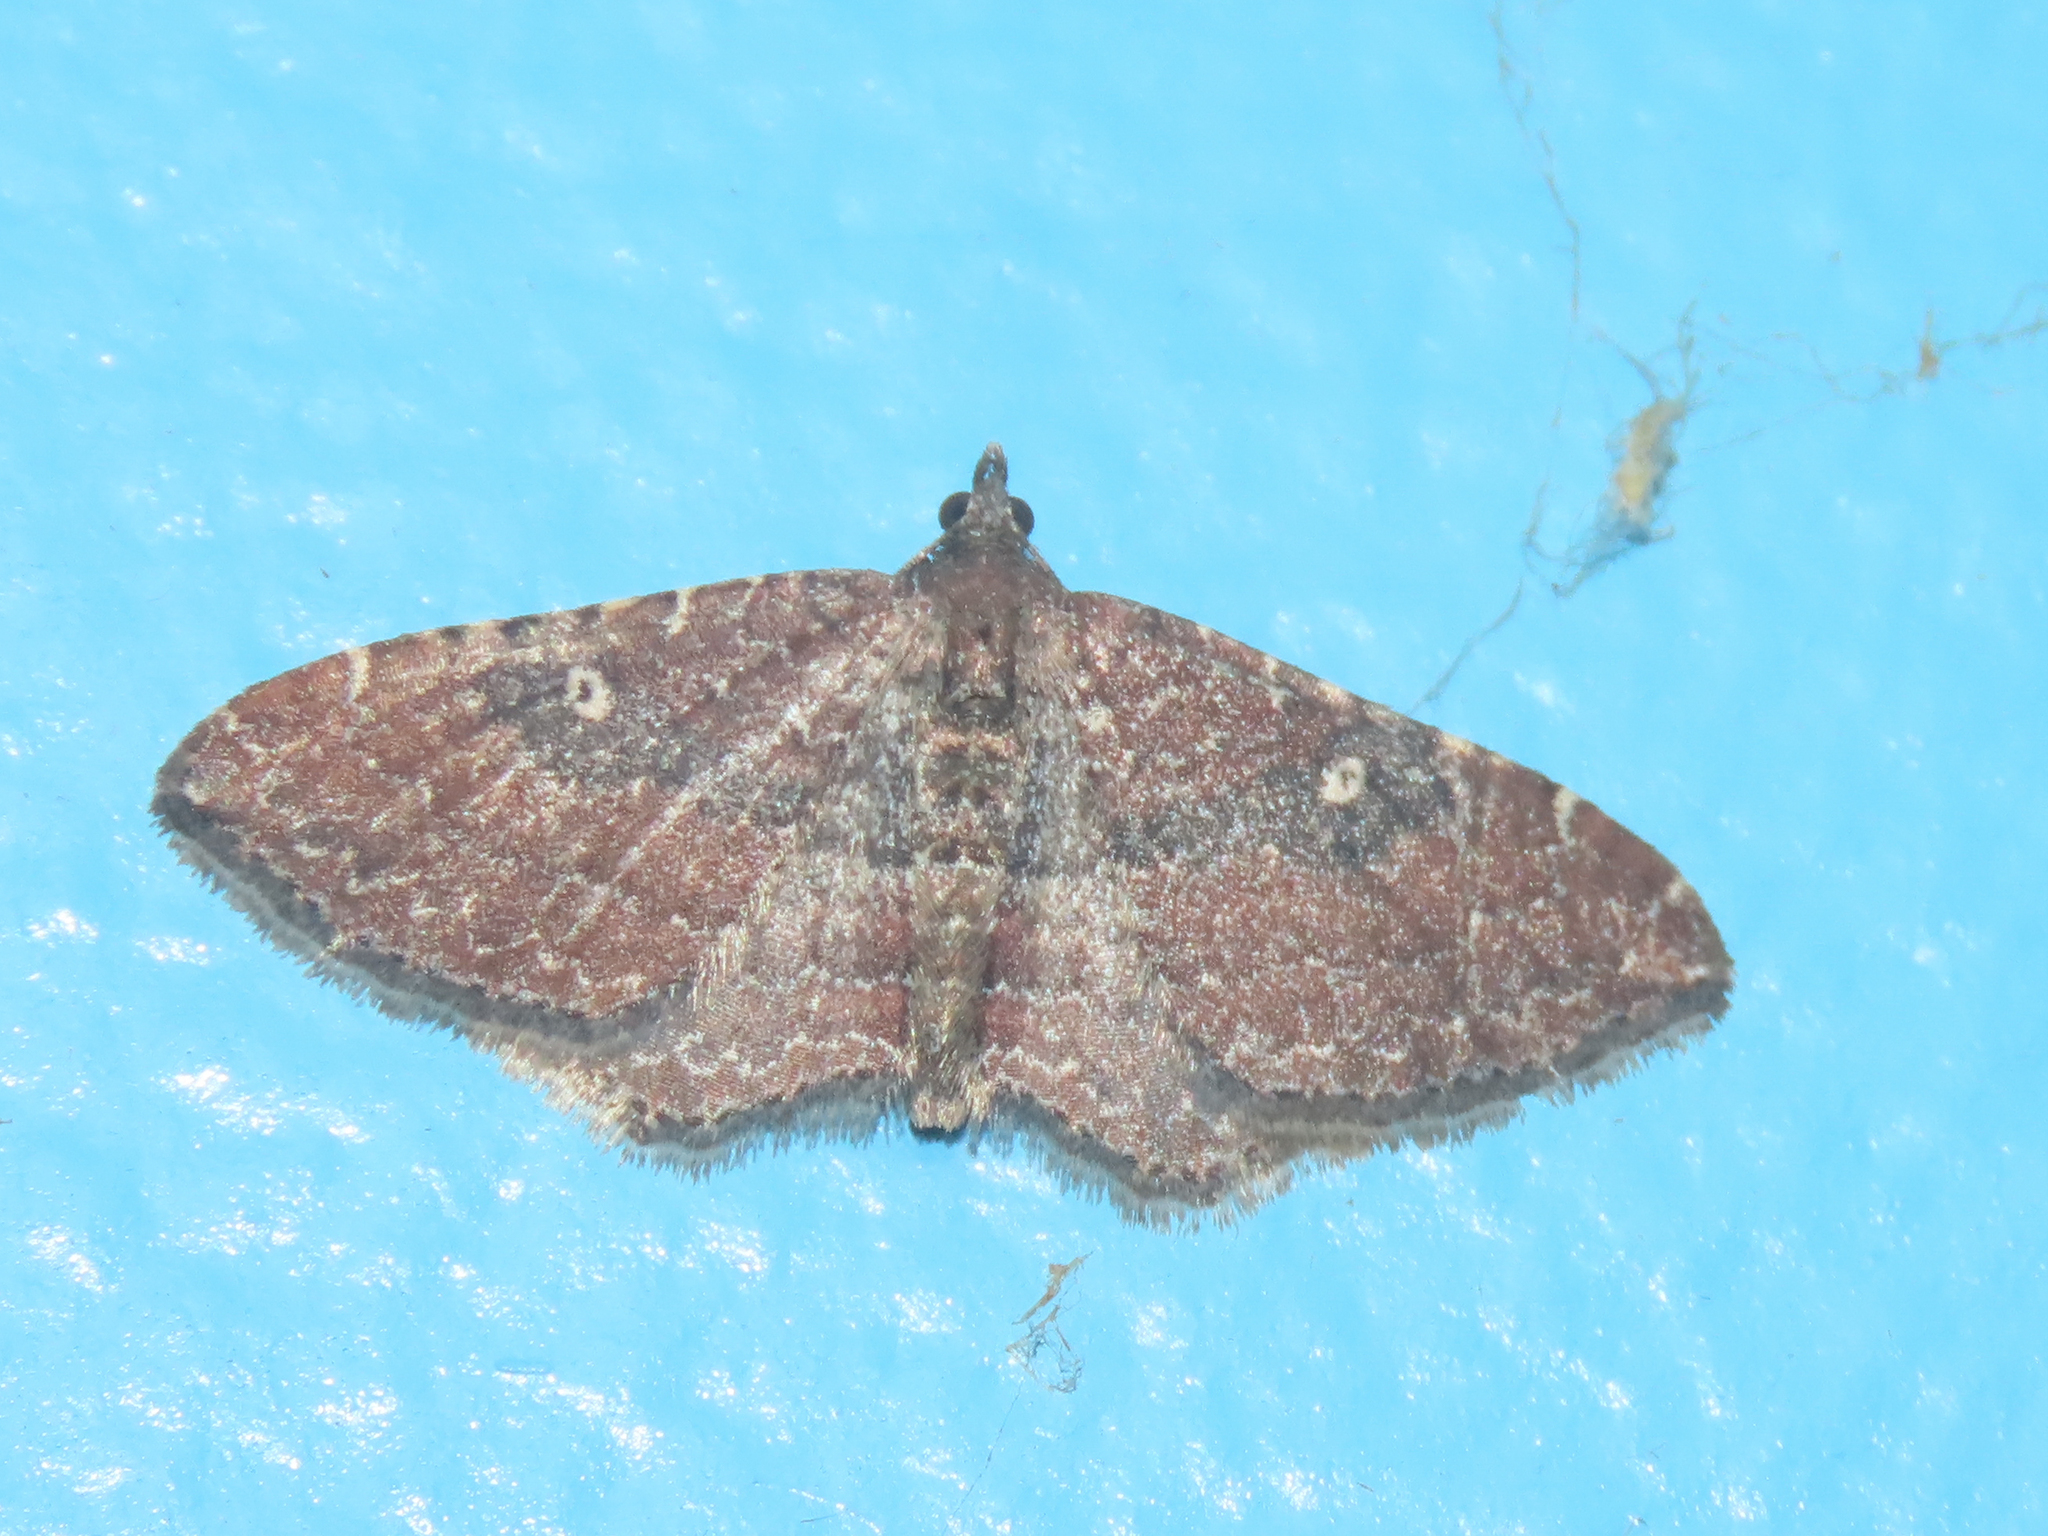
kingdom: Animalia
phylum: Arthropoda
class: Insecta
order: Lepidoptera
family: Geometridae
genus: Orthonama
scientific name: Orthonama obstipata
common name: The gem
